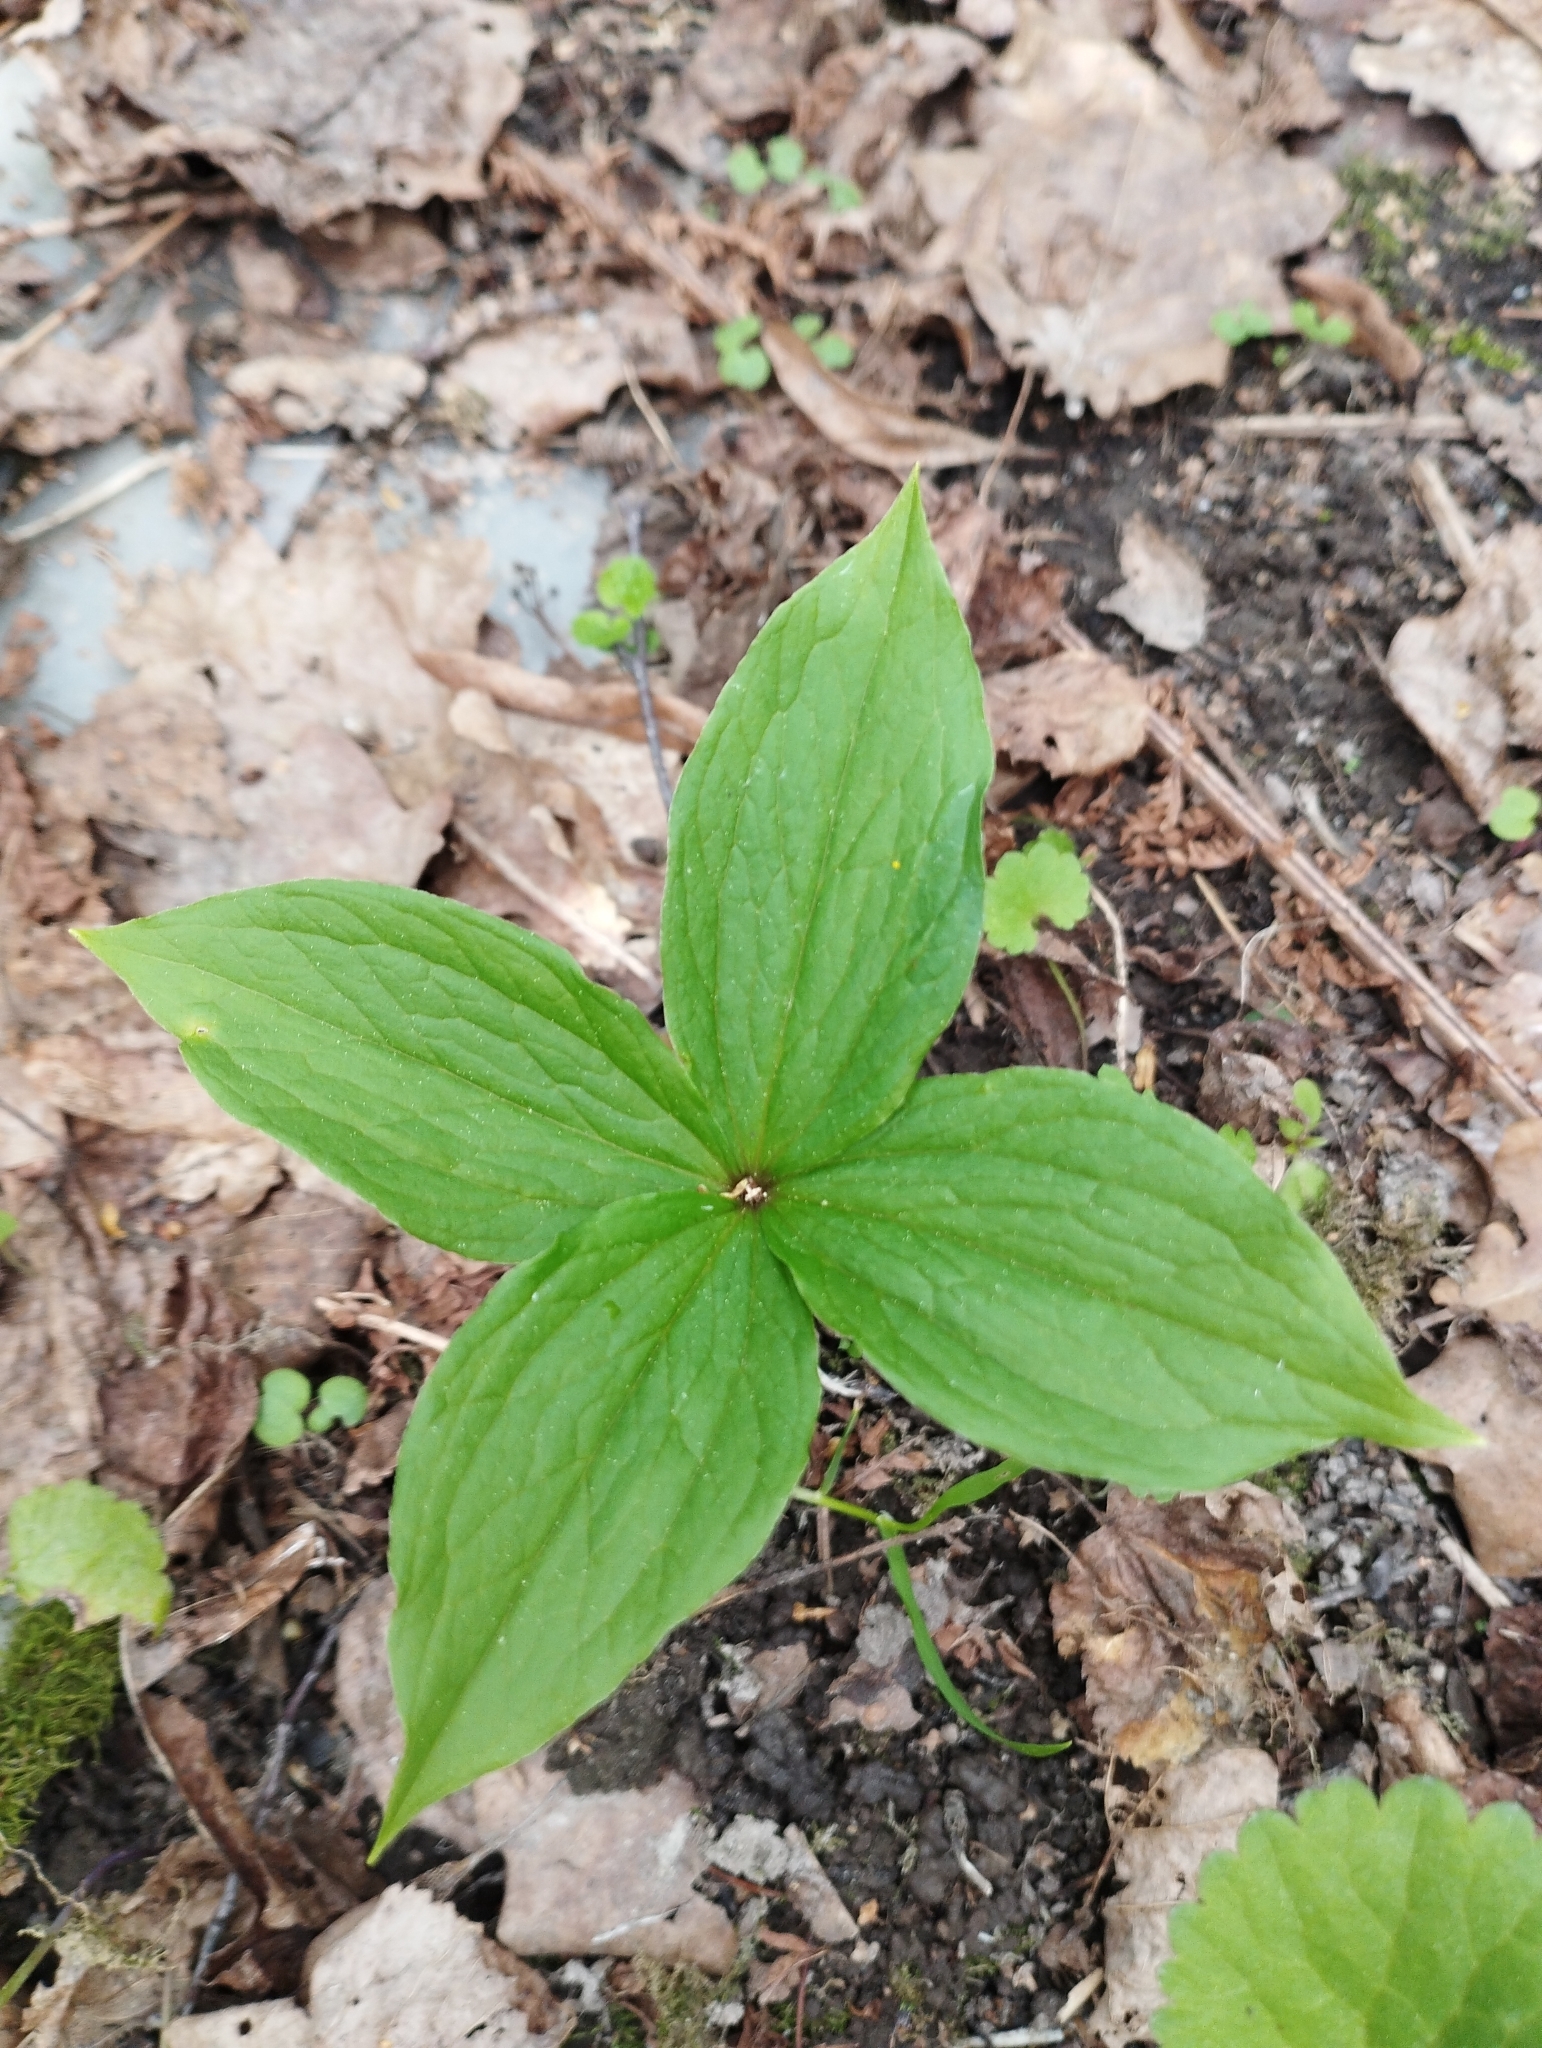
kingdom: Plantae
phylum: Tracheophyta
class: Liliopsida
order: Liliales
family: Melanthiaceae
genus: Paris
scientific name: Paris quadrifolia
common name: Herb-paris
